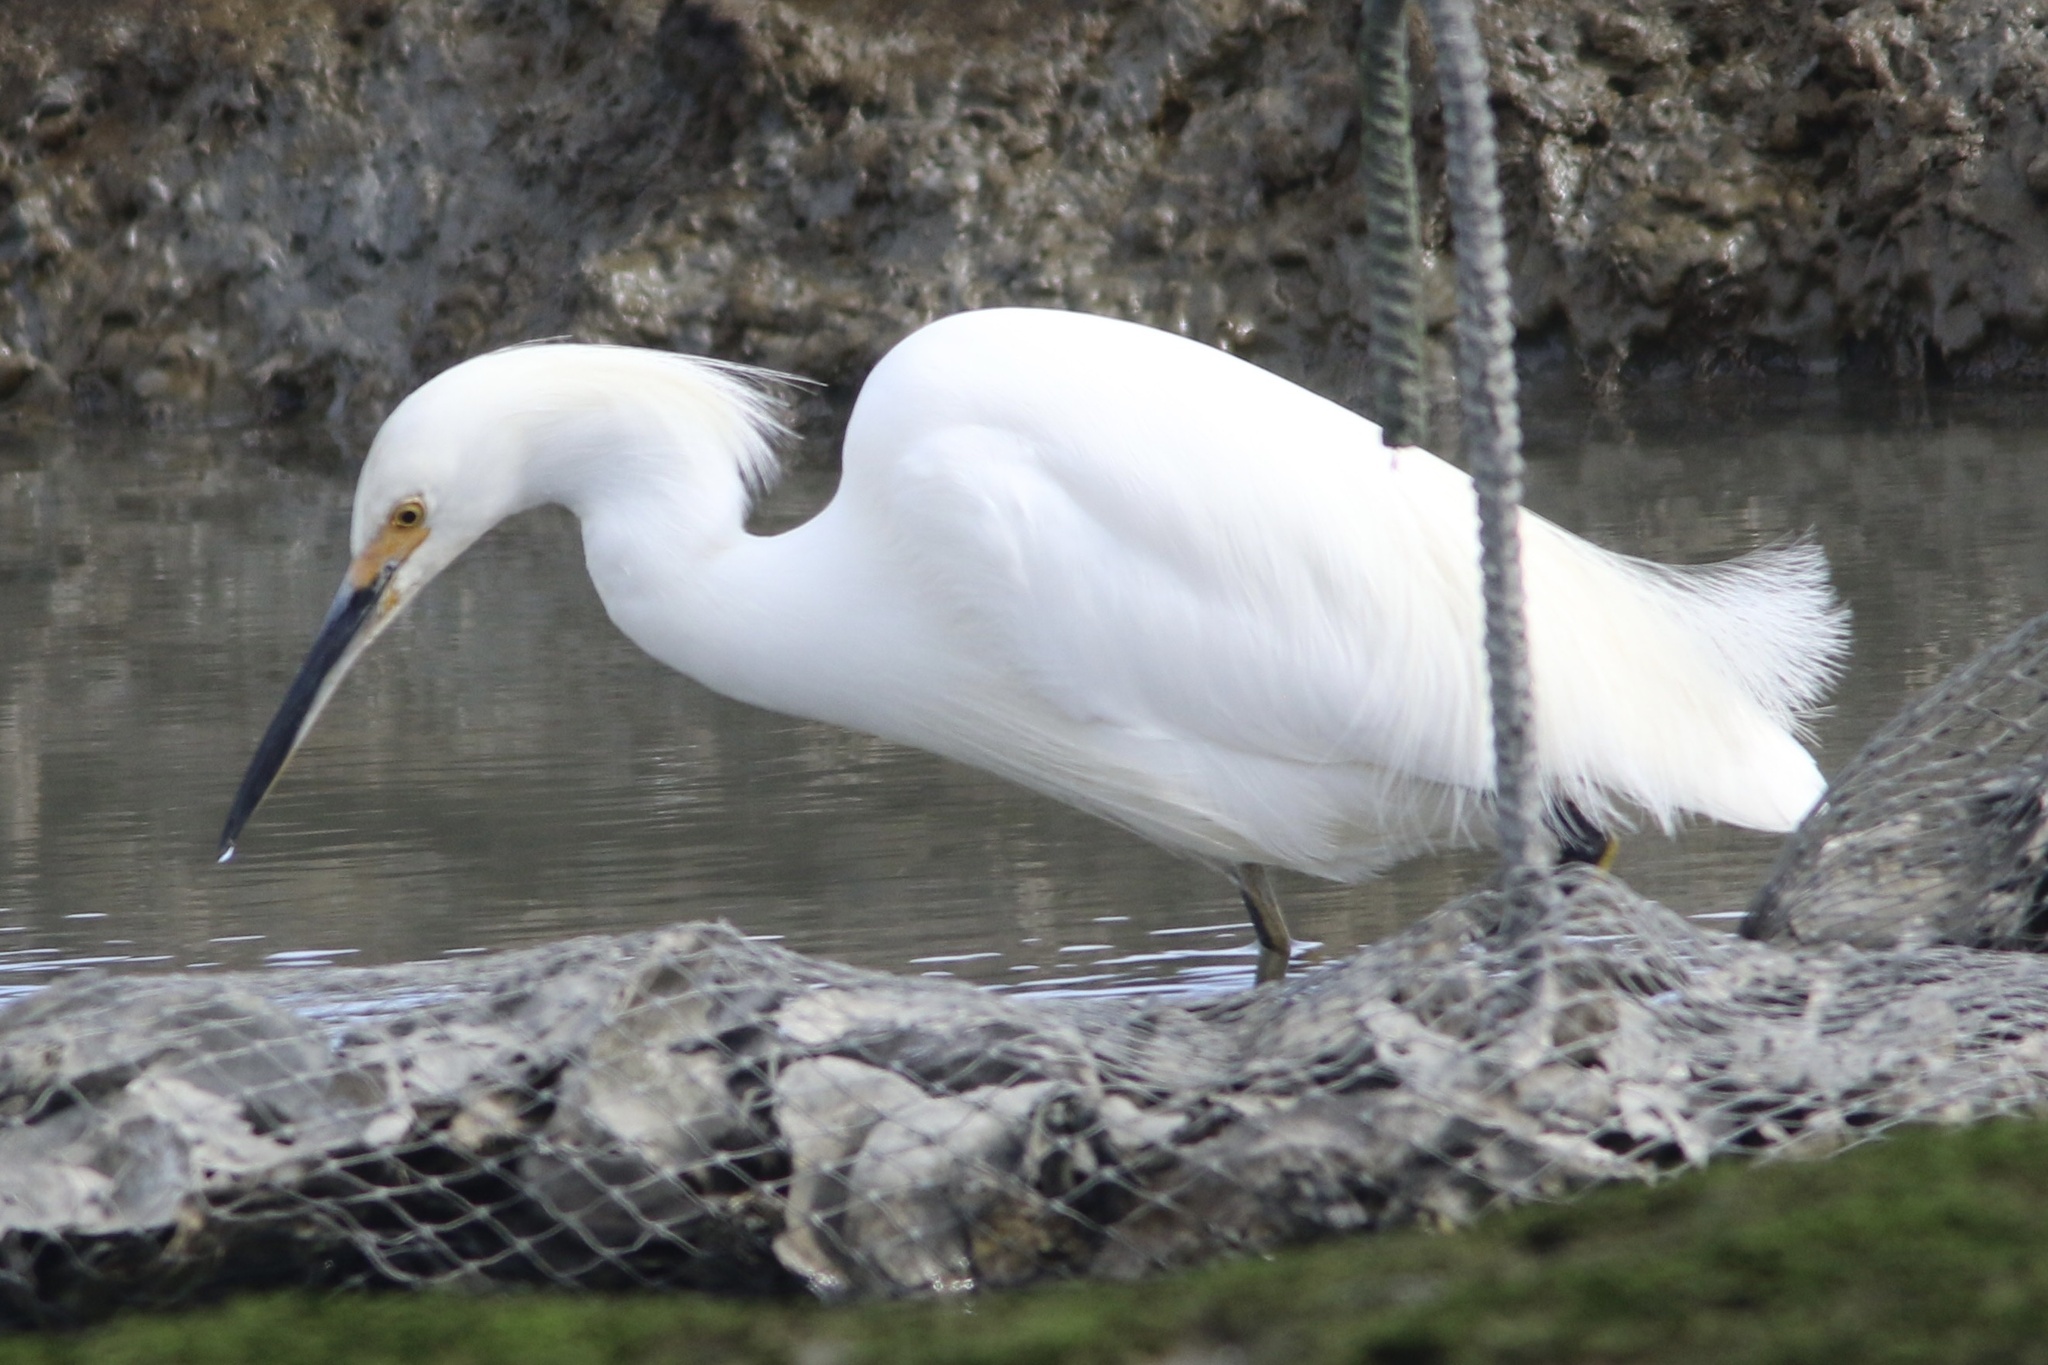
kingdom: Animalia
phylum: Chordata
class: Aves
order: Pelecaniformes
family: Ardeidae
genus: Egretta
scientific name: Egretta thula
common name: Snowy egret
